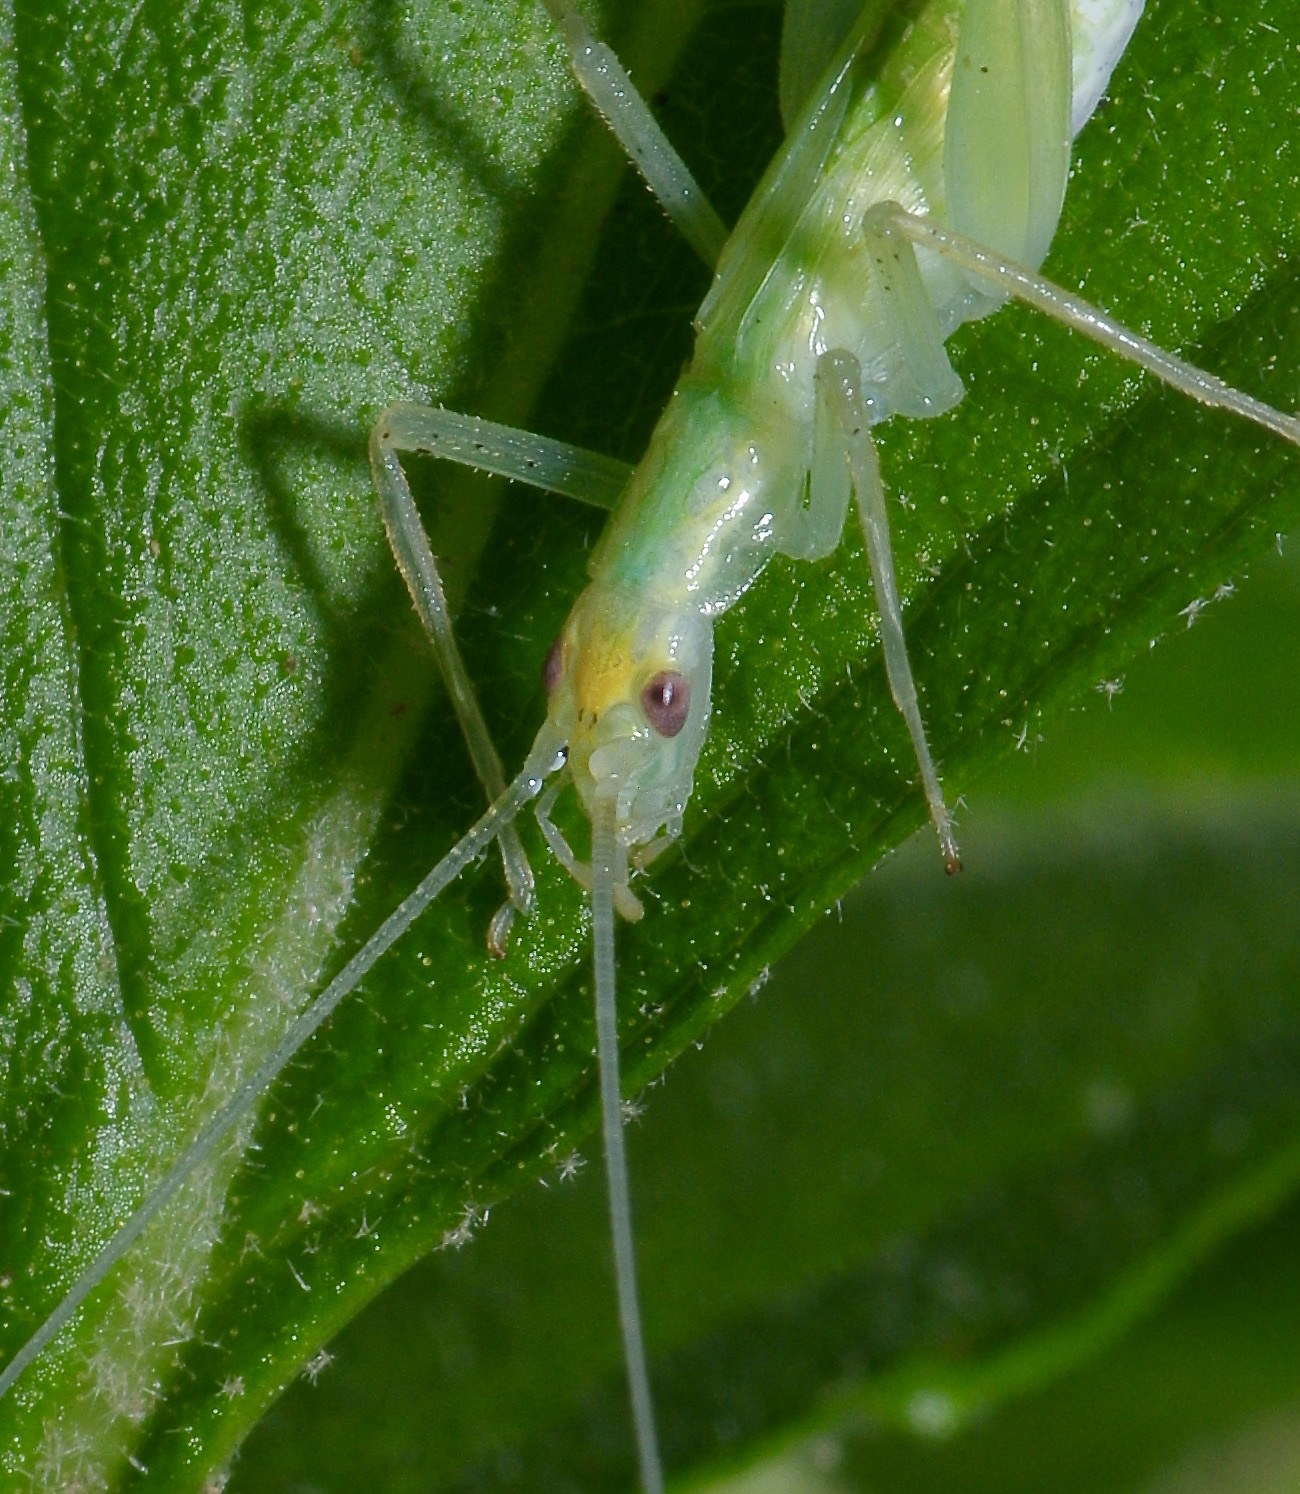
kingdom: Animalia
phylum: Arthropoda
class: Insecta
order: Orthoptera
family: Gryllidae
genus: Oecanthus
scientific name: Oecanthus niveus
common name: Narrow-winged tree cricket
